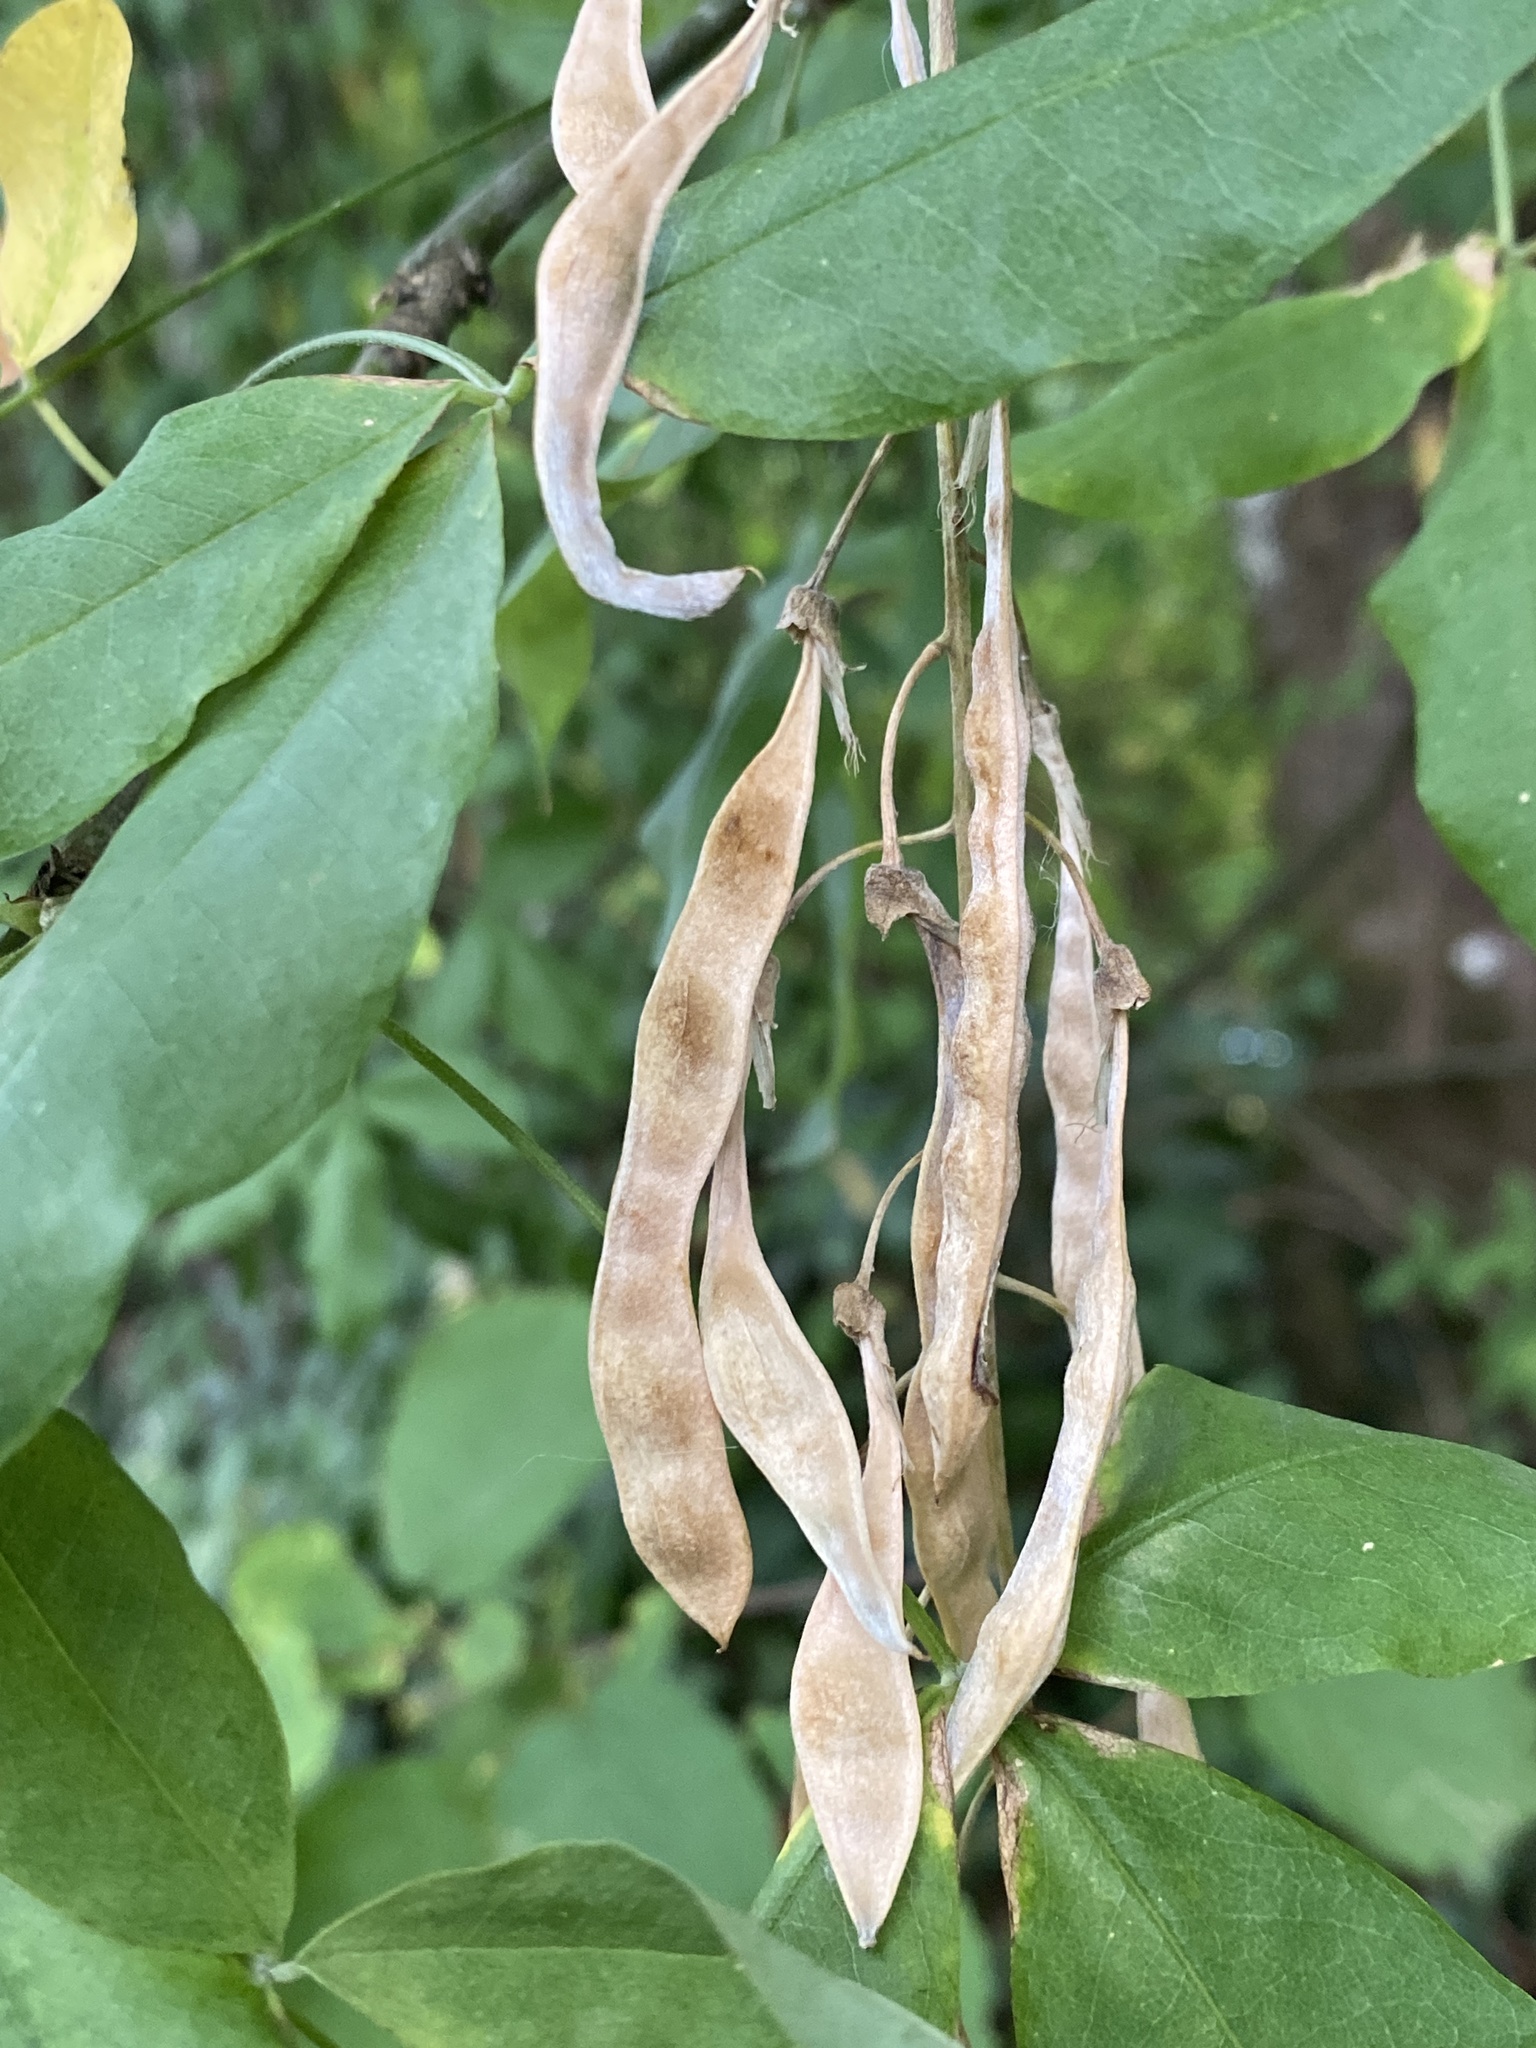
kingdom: Plantae
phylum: Tracheophyta
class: Magnoliopsida
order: Fabales
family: Fabaceae
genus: Laburnum
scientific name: Laburnum anagyroides
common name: Laburnum
